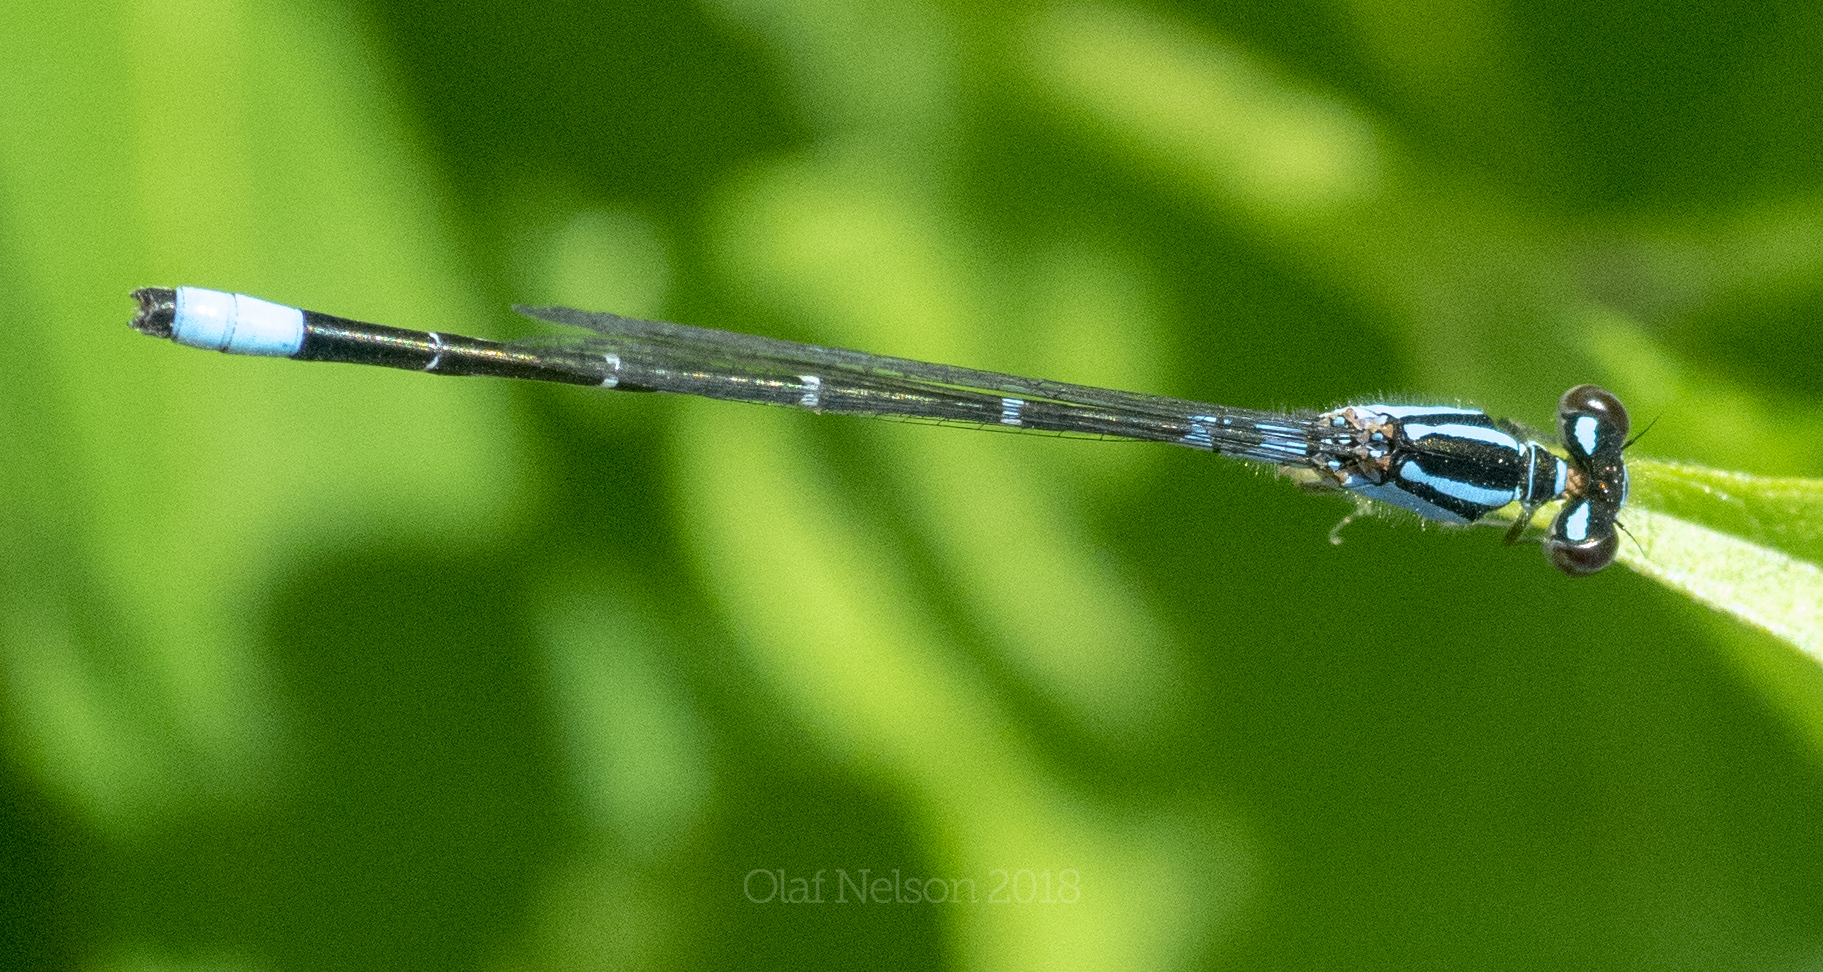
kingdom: Animalia
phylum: Arthropoda
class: Insecta
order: Odonata
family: Coenagrionidae
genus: Enallagma
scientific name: Enallagma geminatum
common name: Skimming bluet
